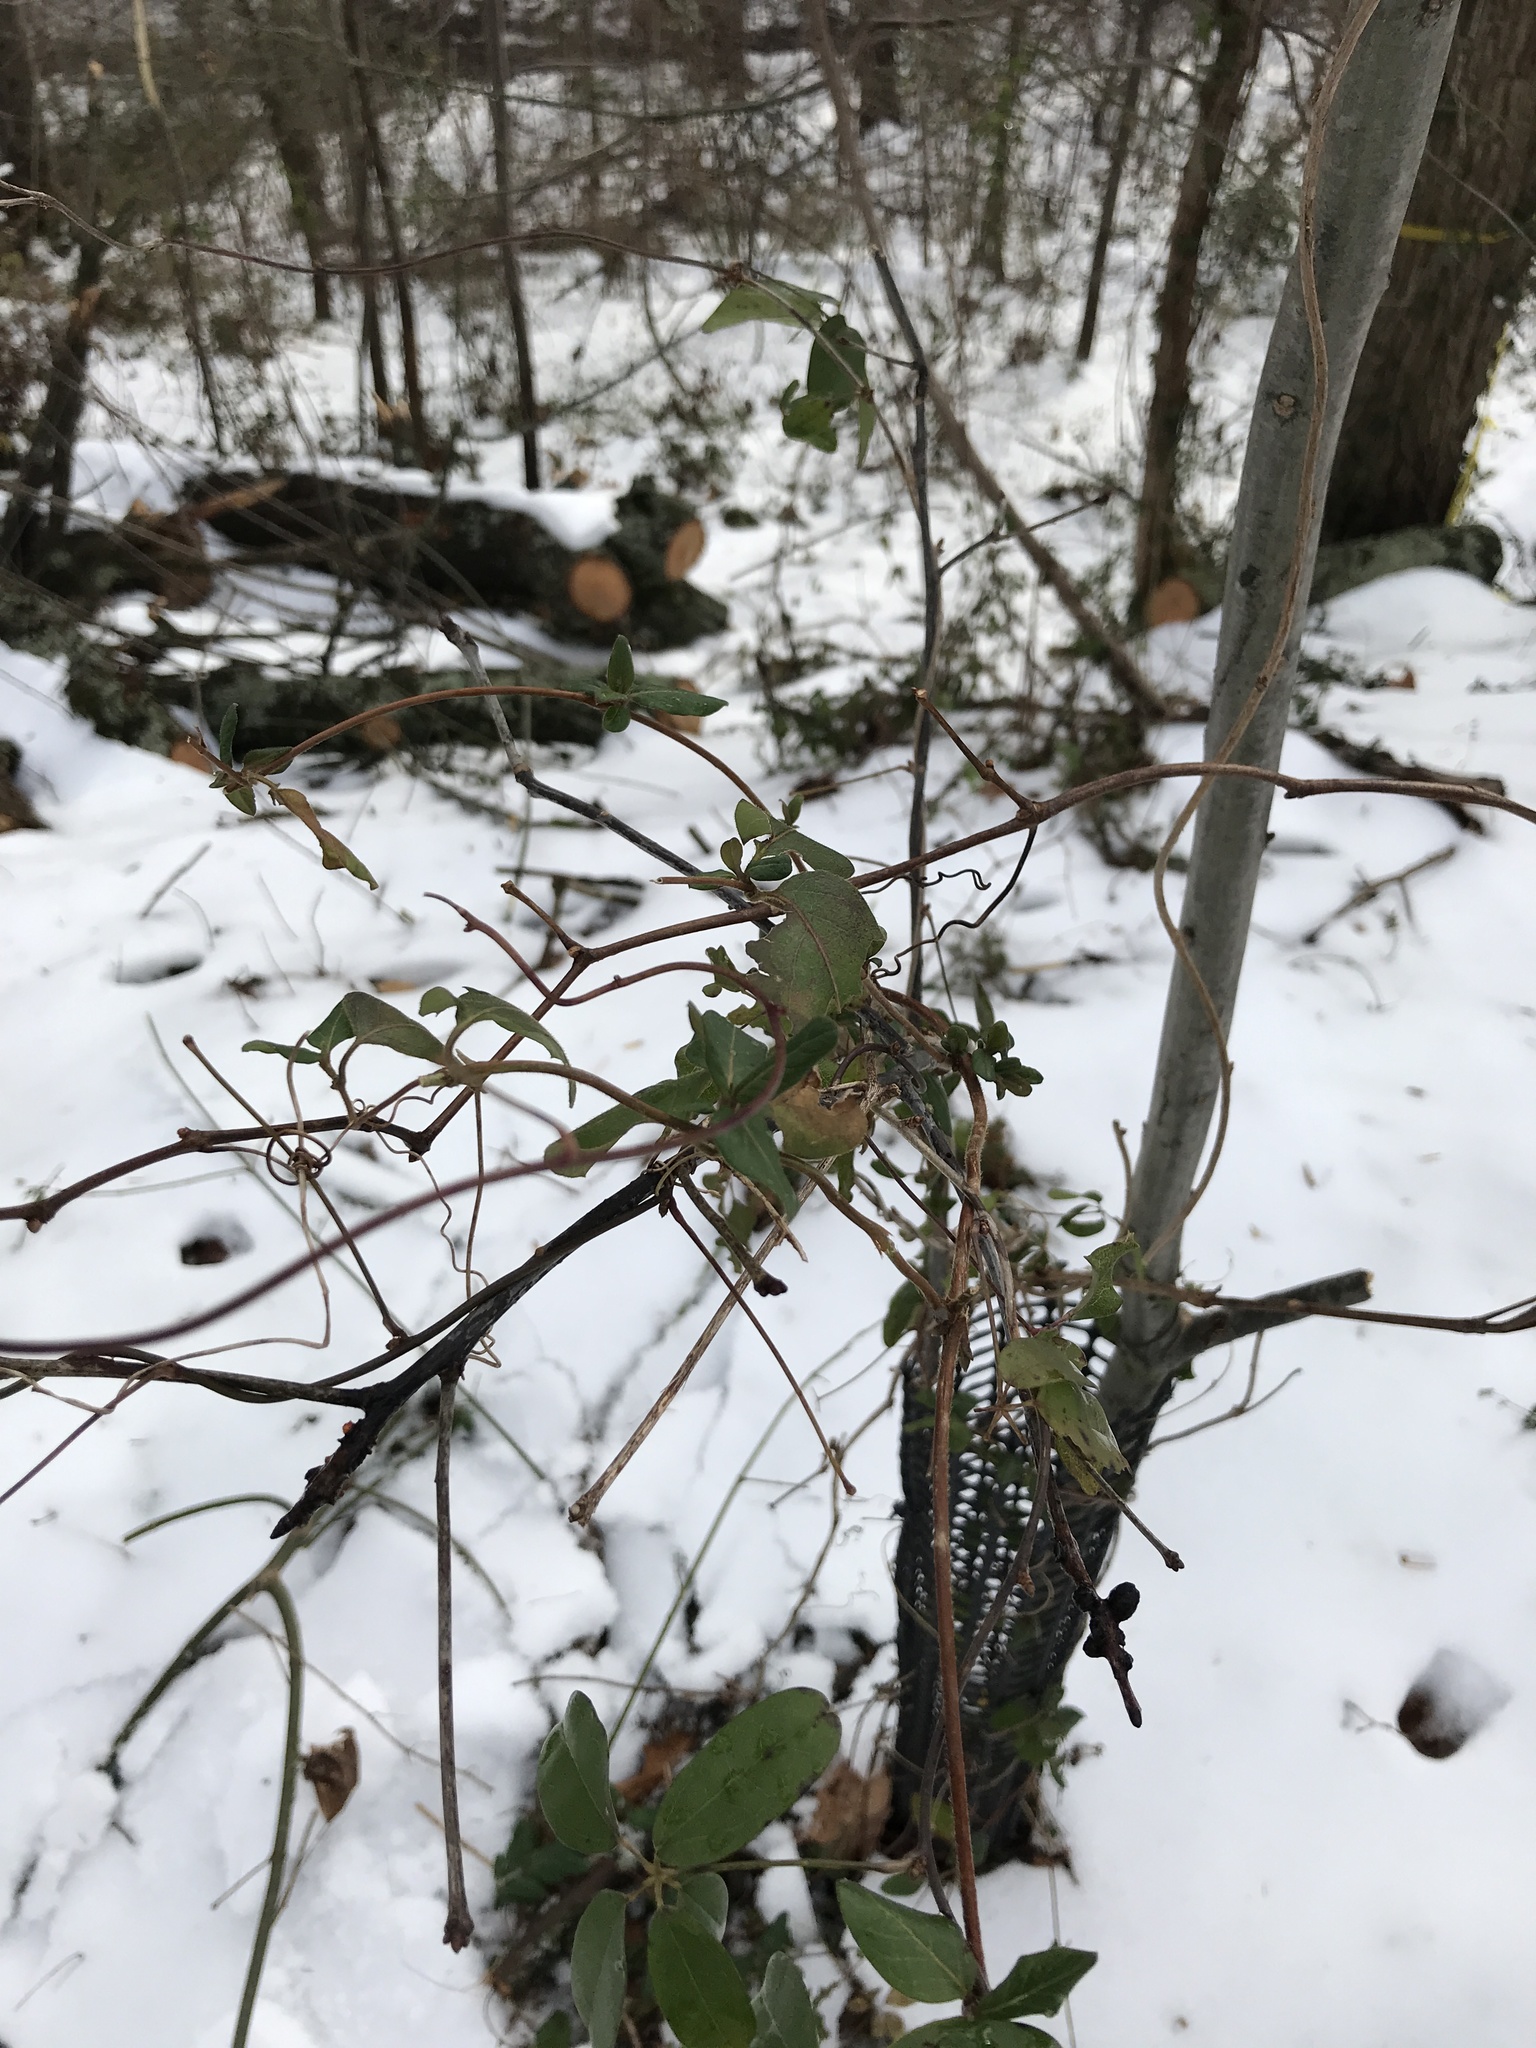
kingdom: Plantae
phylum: Tracheophyta
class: Magnoliopsida
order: Dipsacales
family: Caprifoliaceae
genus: Lonicera
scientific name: Lonicera japonica
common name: Japanese honeysuckle
